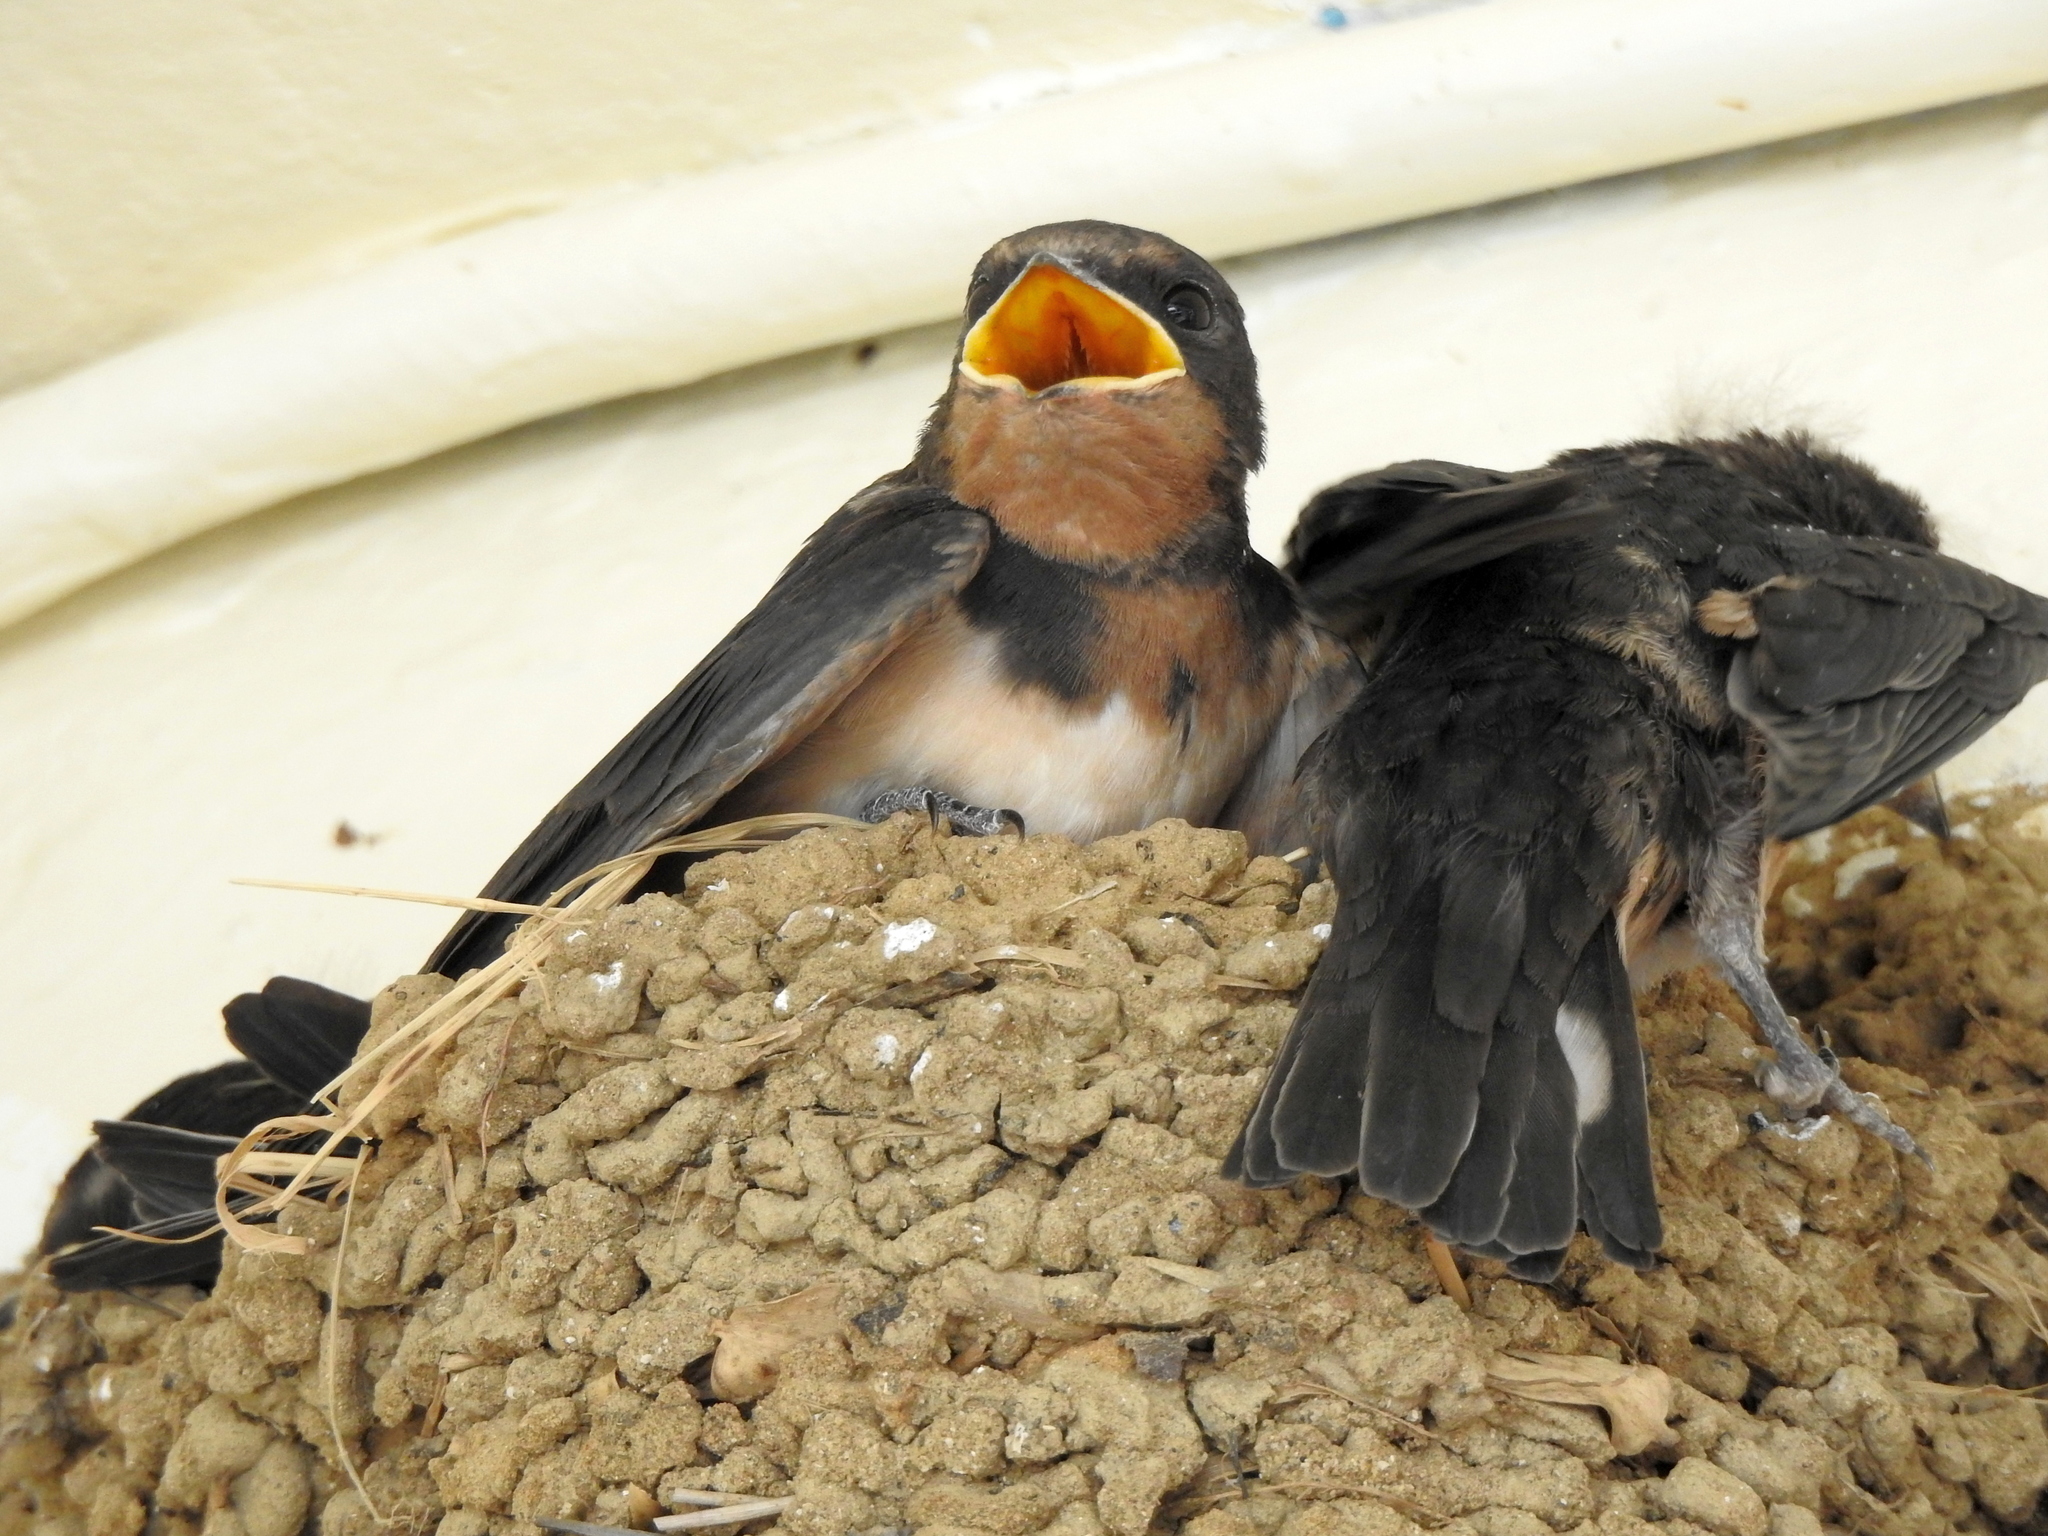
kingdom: Animalia
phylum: Chordata
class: Aves
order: Passeriformes
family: Hirundinidae
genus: Hirundo
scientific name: Hirundo rustica
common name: Barn swallow
